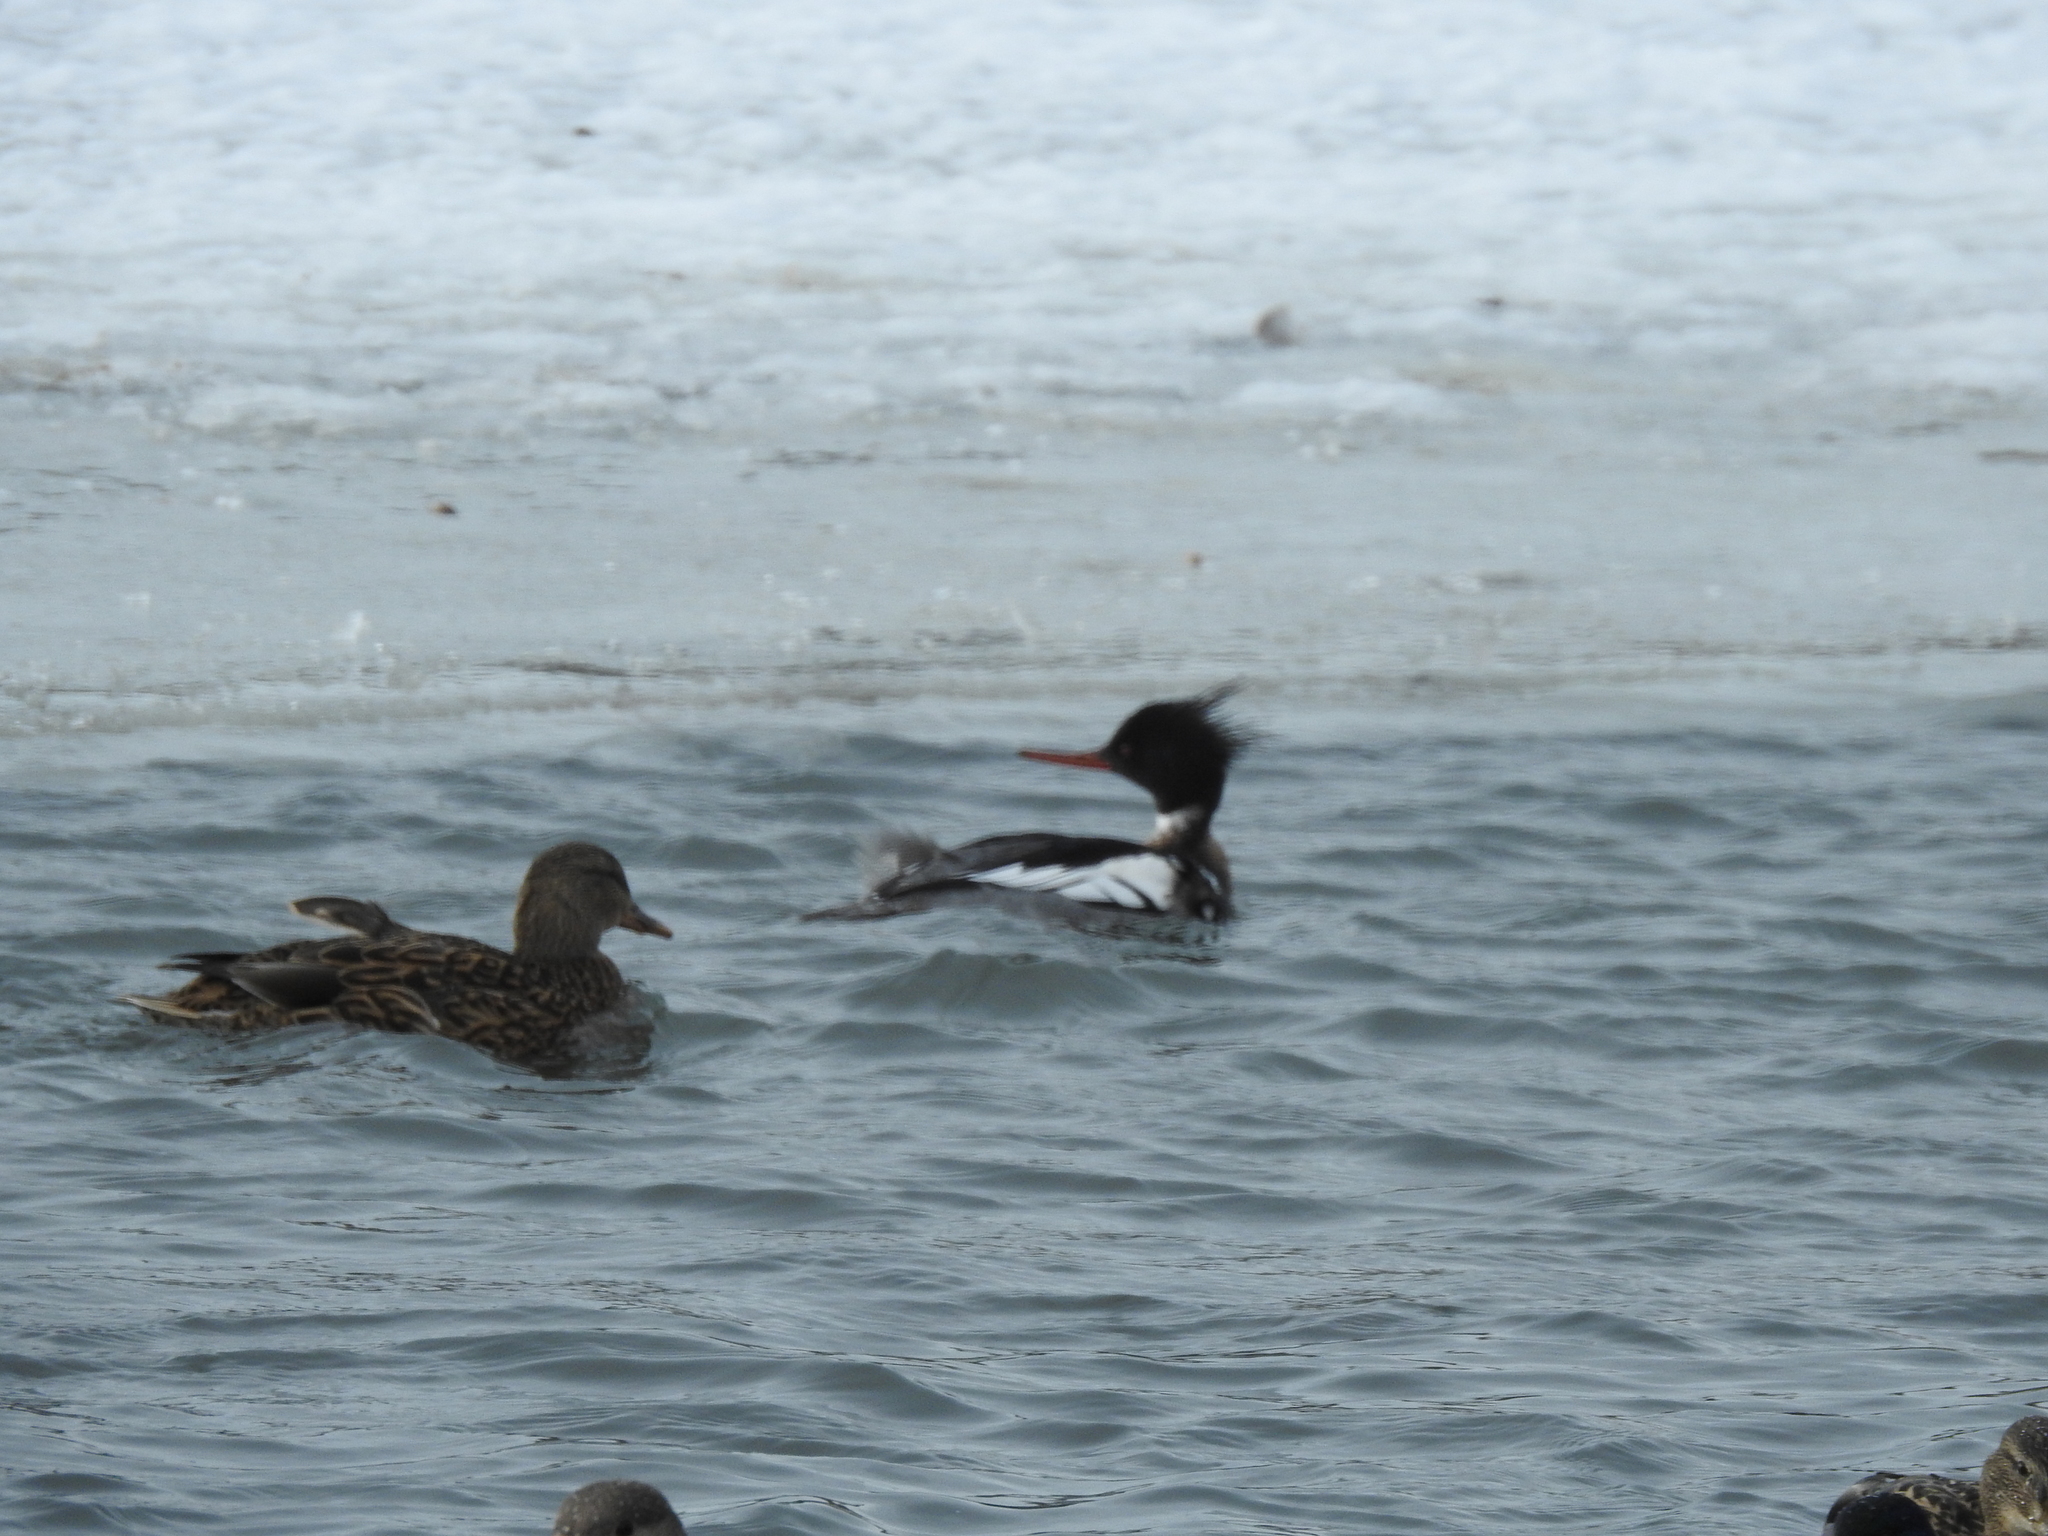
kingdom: Animalia
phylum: Chordata
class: Aves
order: Anseriformes
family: Anatidae
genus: Mergus
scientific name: Mergus serrator
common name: Red-breasted merganser
